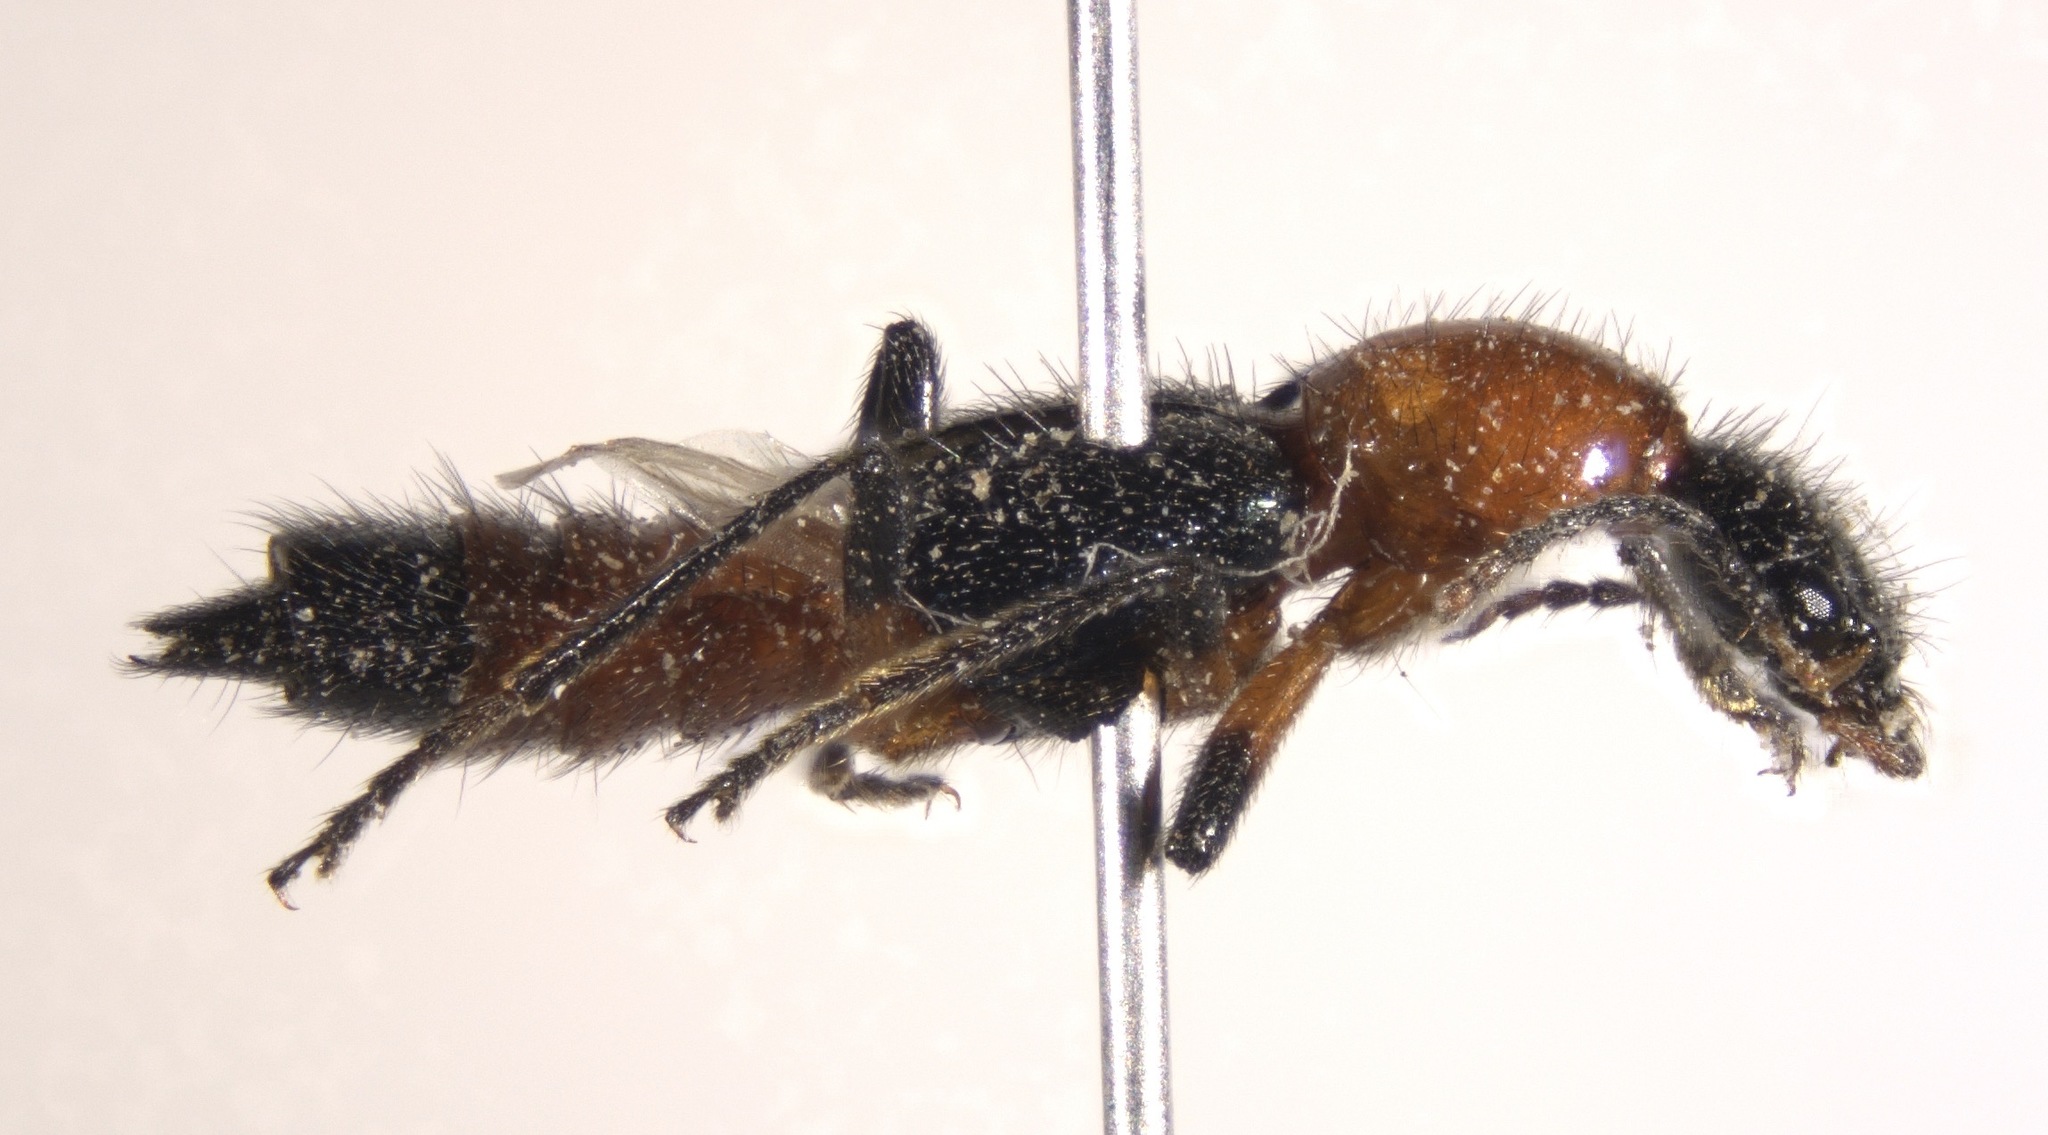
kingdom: Animalia
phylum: Arthropoda
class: Insecta
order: Coleoptera
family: Staphylinidae
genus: Paederus
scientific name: Paederus grandis
